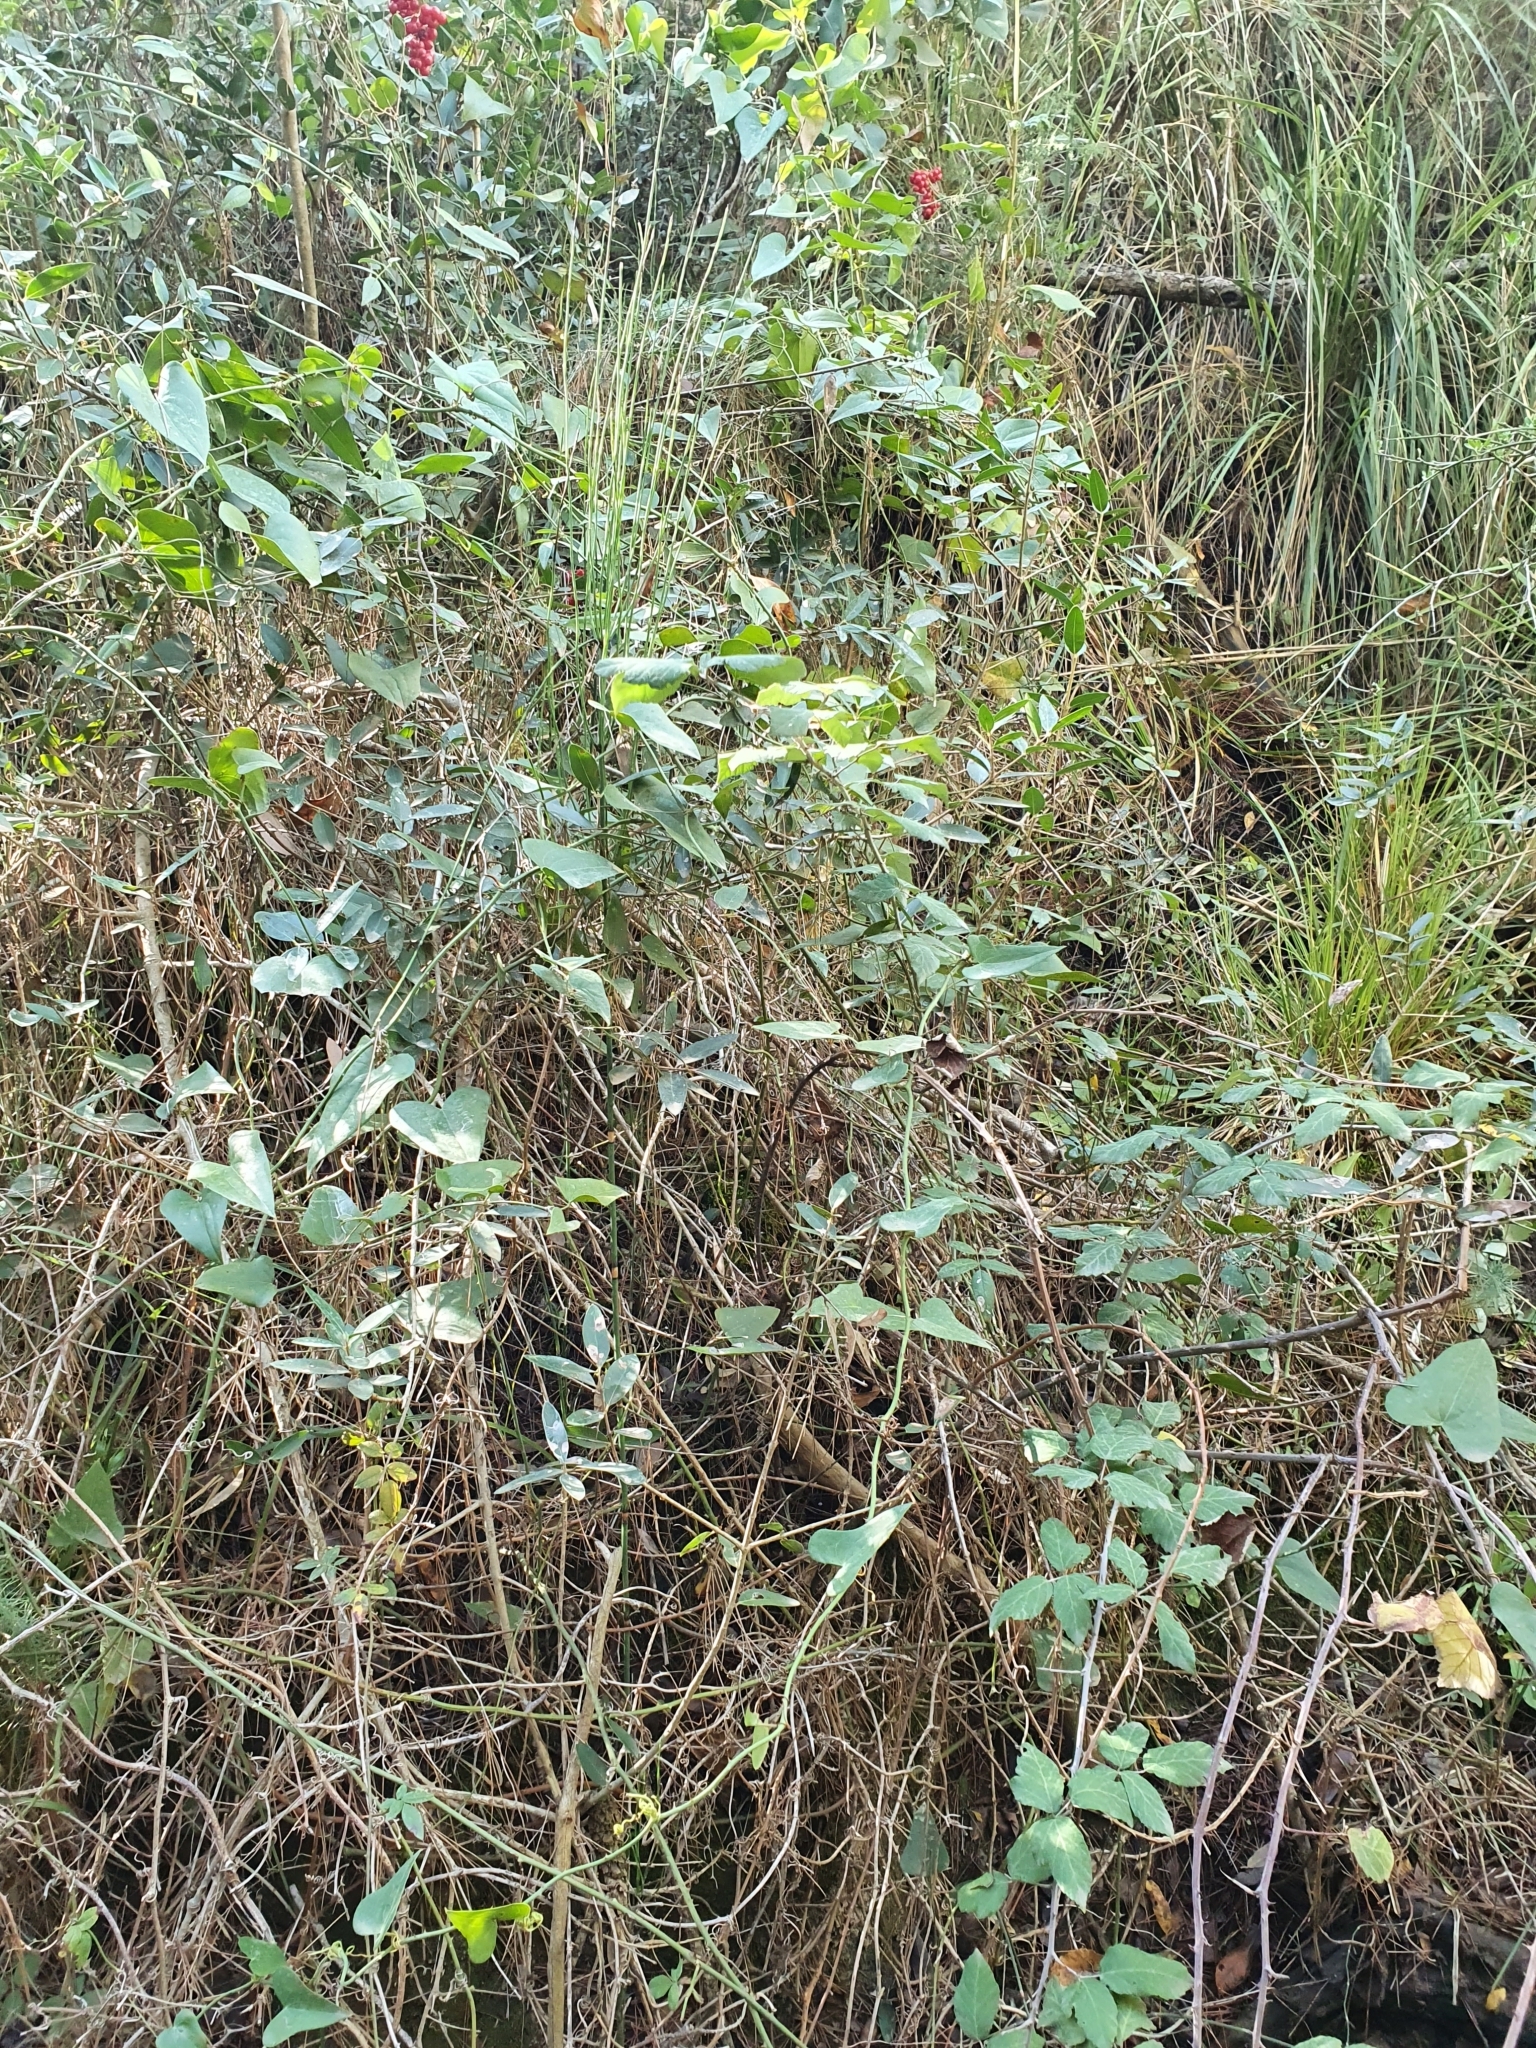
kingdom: Plantae
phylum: Tracheophyta
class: Polypodiopsida
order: Equisetales
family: Equisetaceae
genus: Equisetum
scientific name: Equisetum ramosissimum
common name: Branched horsetail
